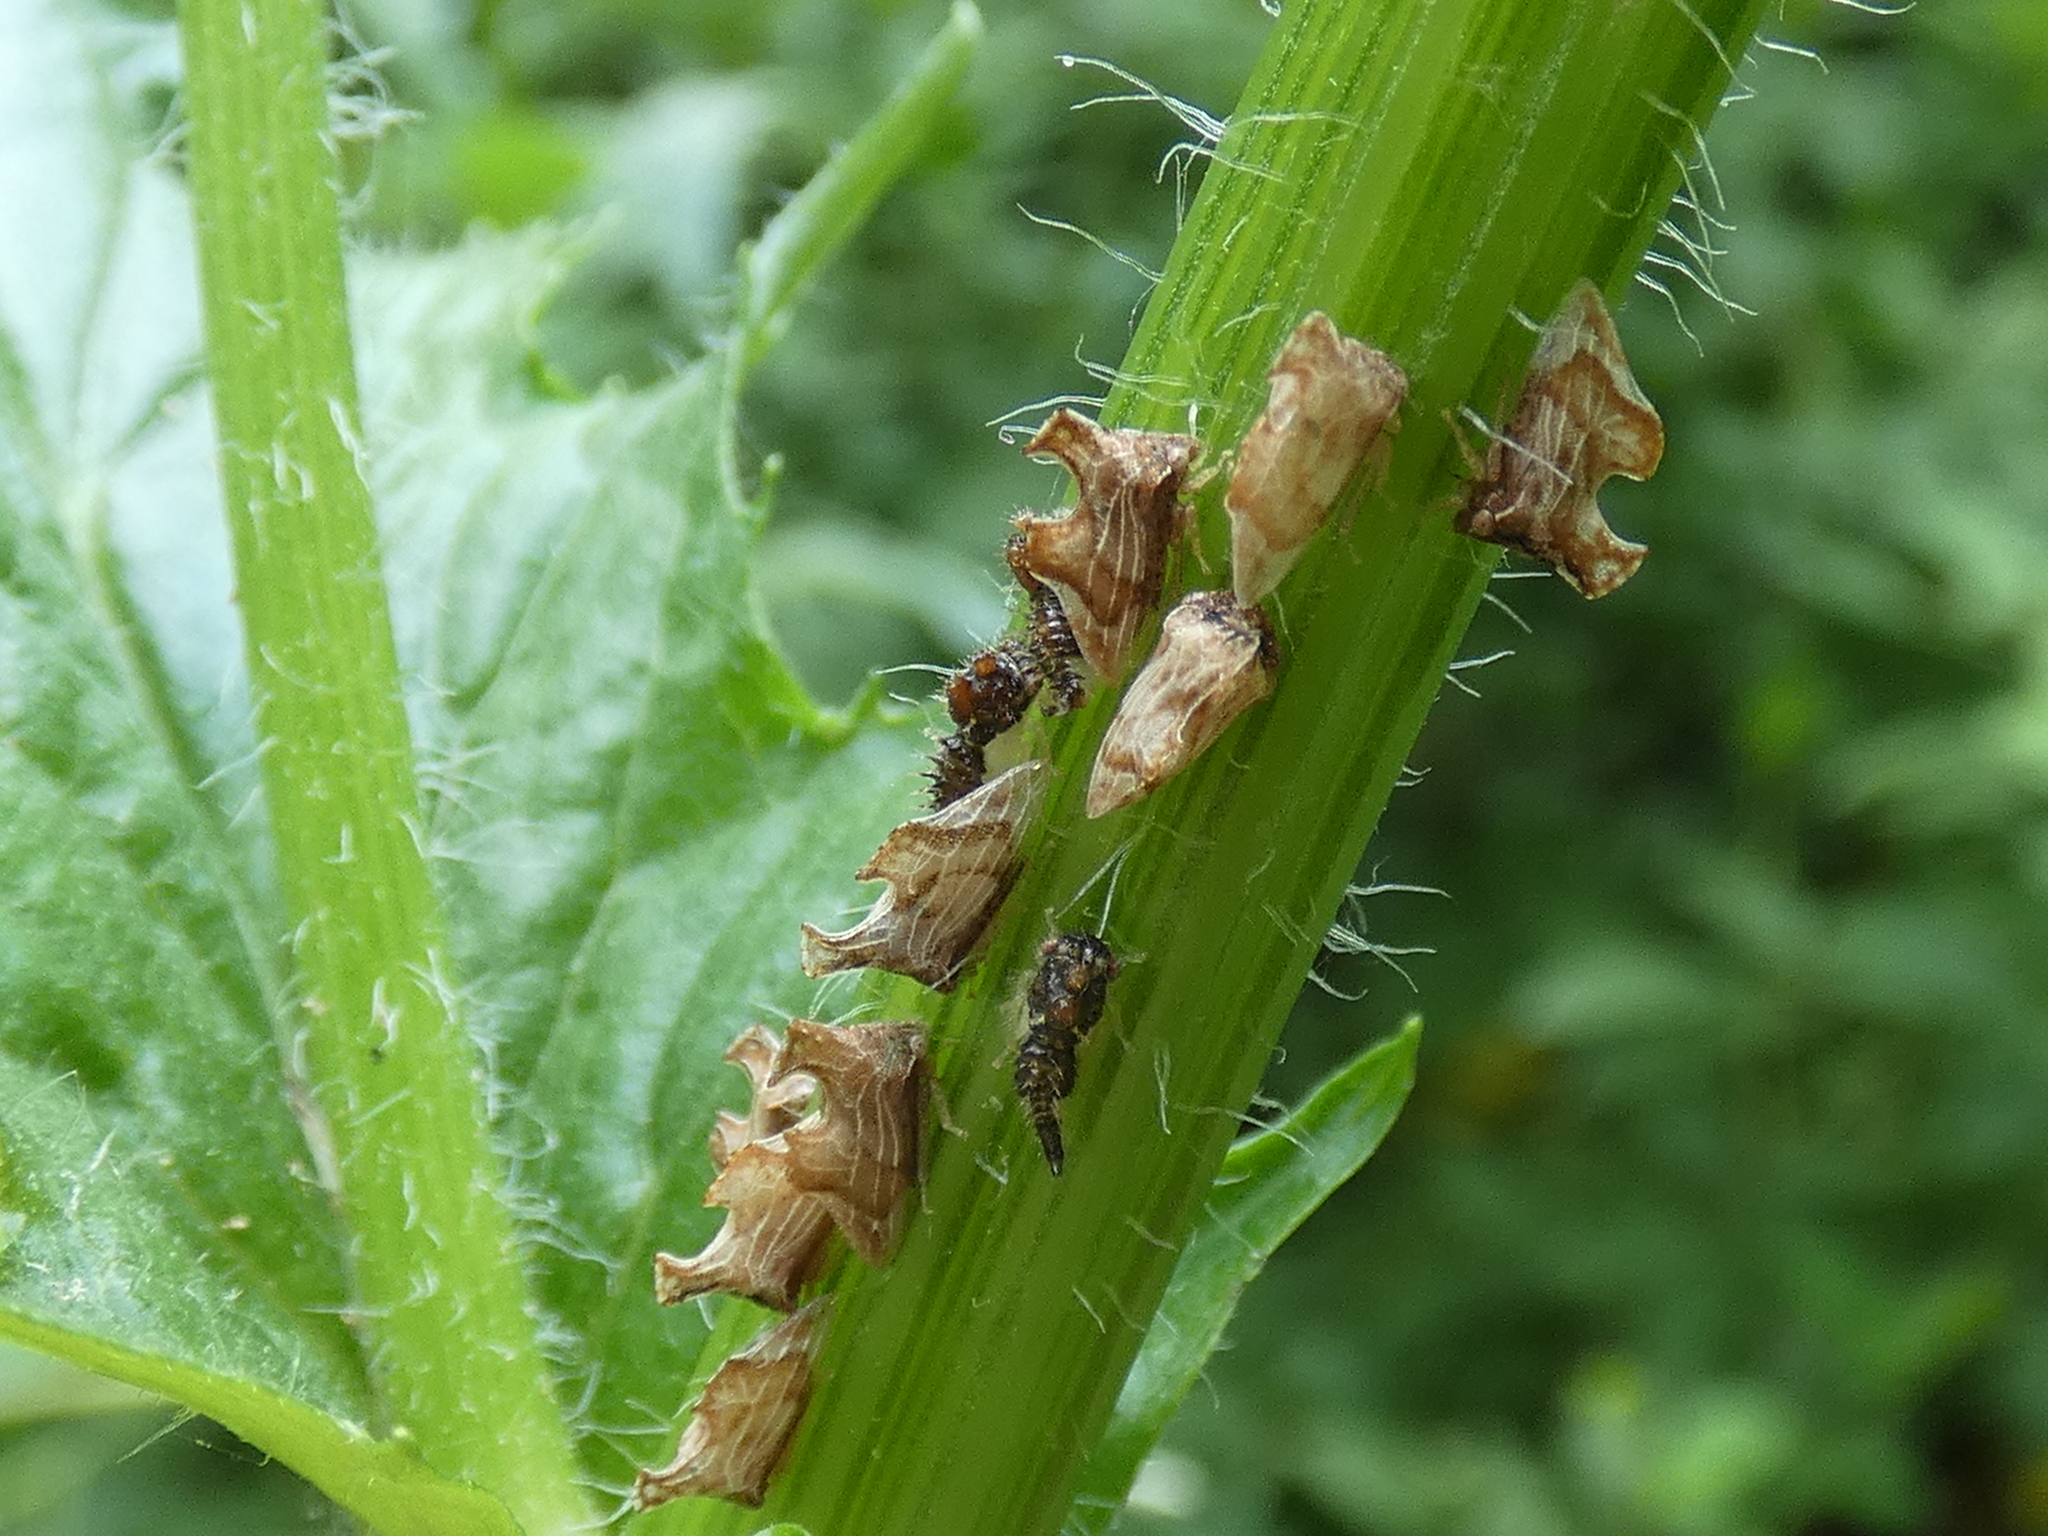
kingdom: Animalia
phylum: Arthropoda
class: Insecta
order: Hemiptera
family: Membracidae
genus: Entylia
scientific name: Entylia carinata
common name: Keeled treehopper
